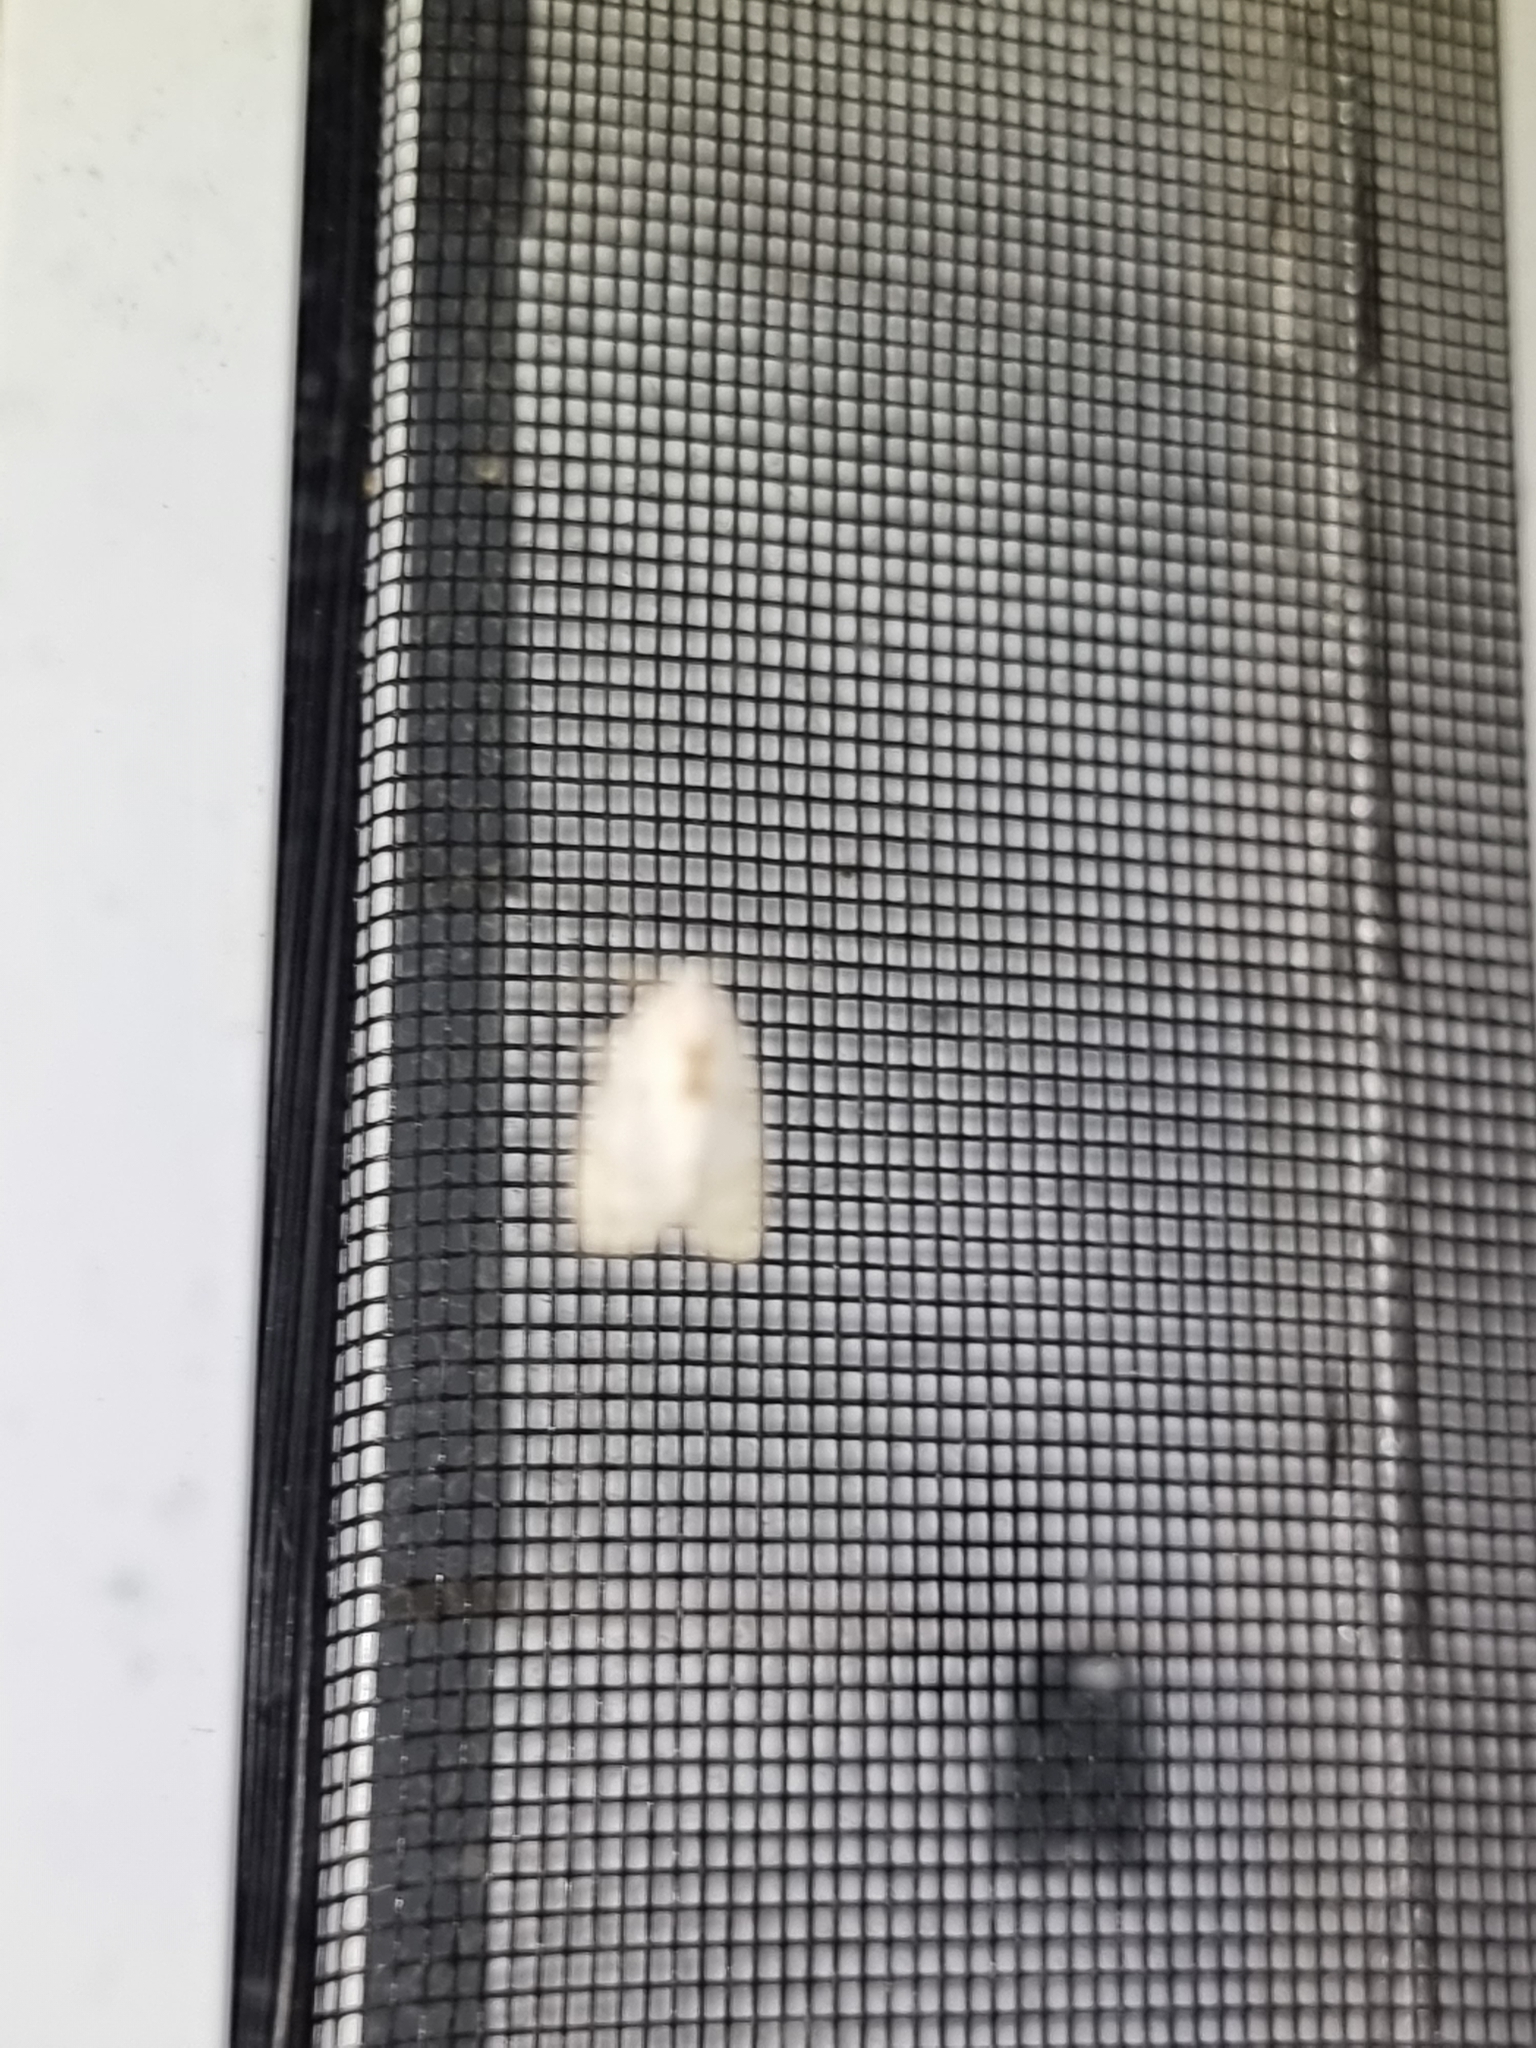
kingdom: Animalia
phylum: Arthropoda
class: Insecta
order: Lepidoptera
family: Erebidae
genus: Schistophleps
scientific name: Schistophleps albida
